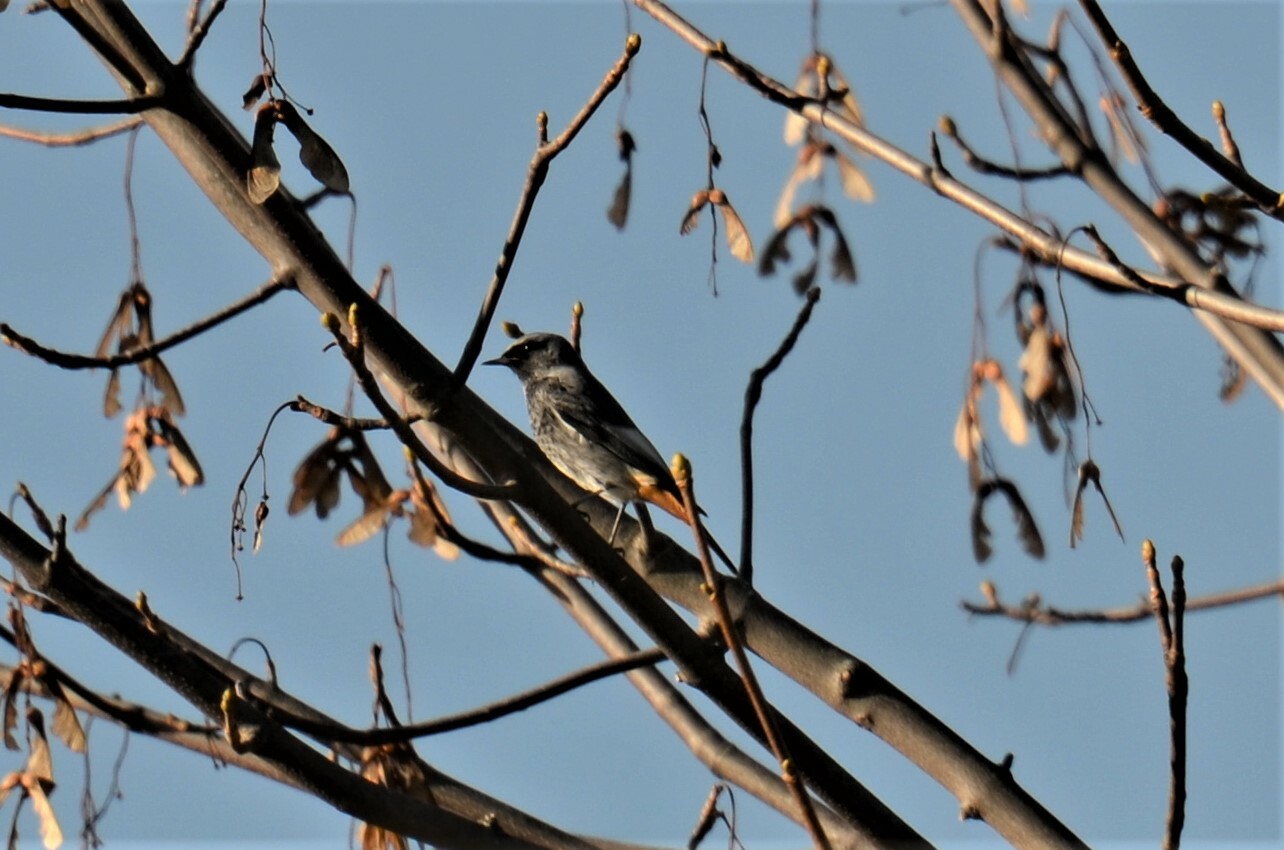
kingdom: Animalia
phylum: Chordata
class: Aves
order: Passeriformes
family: Muscicapidae
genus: Phoenicurus
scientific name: Phoenicurus ochruros
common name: Black redstart
